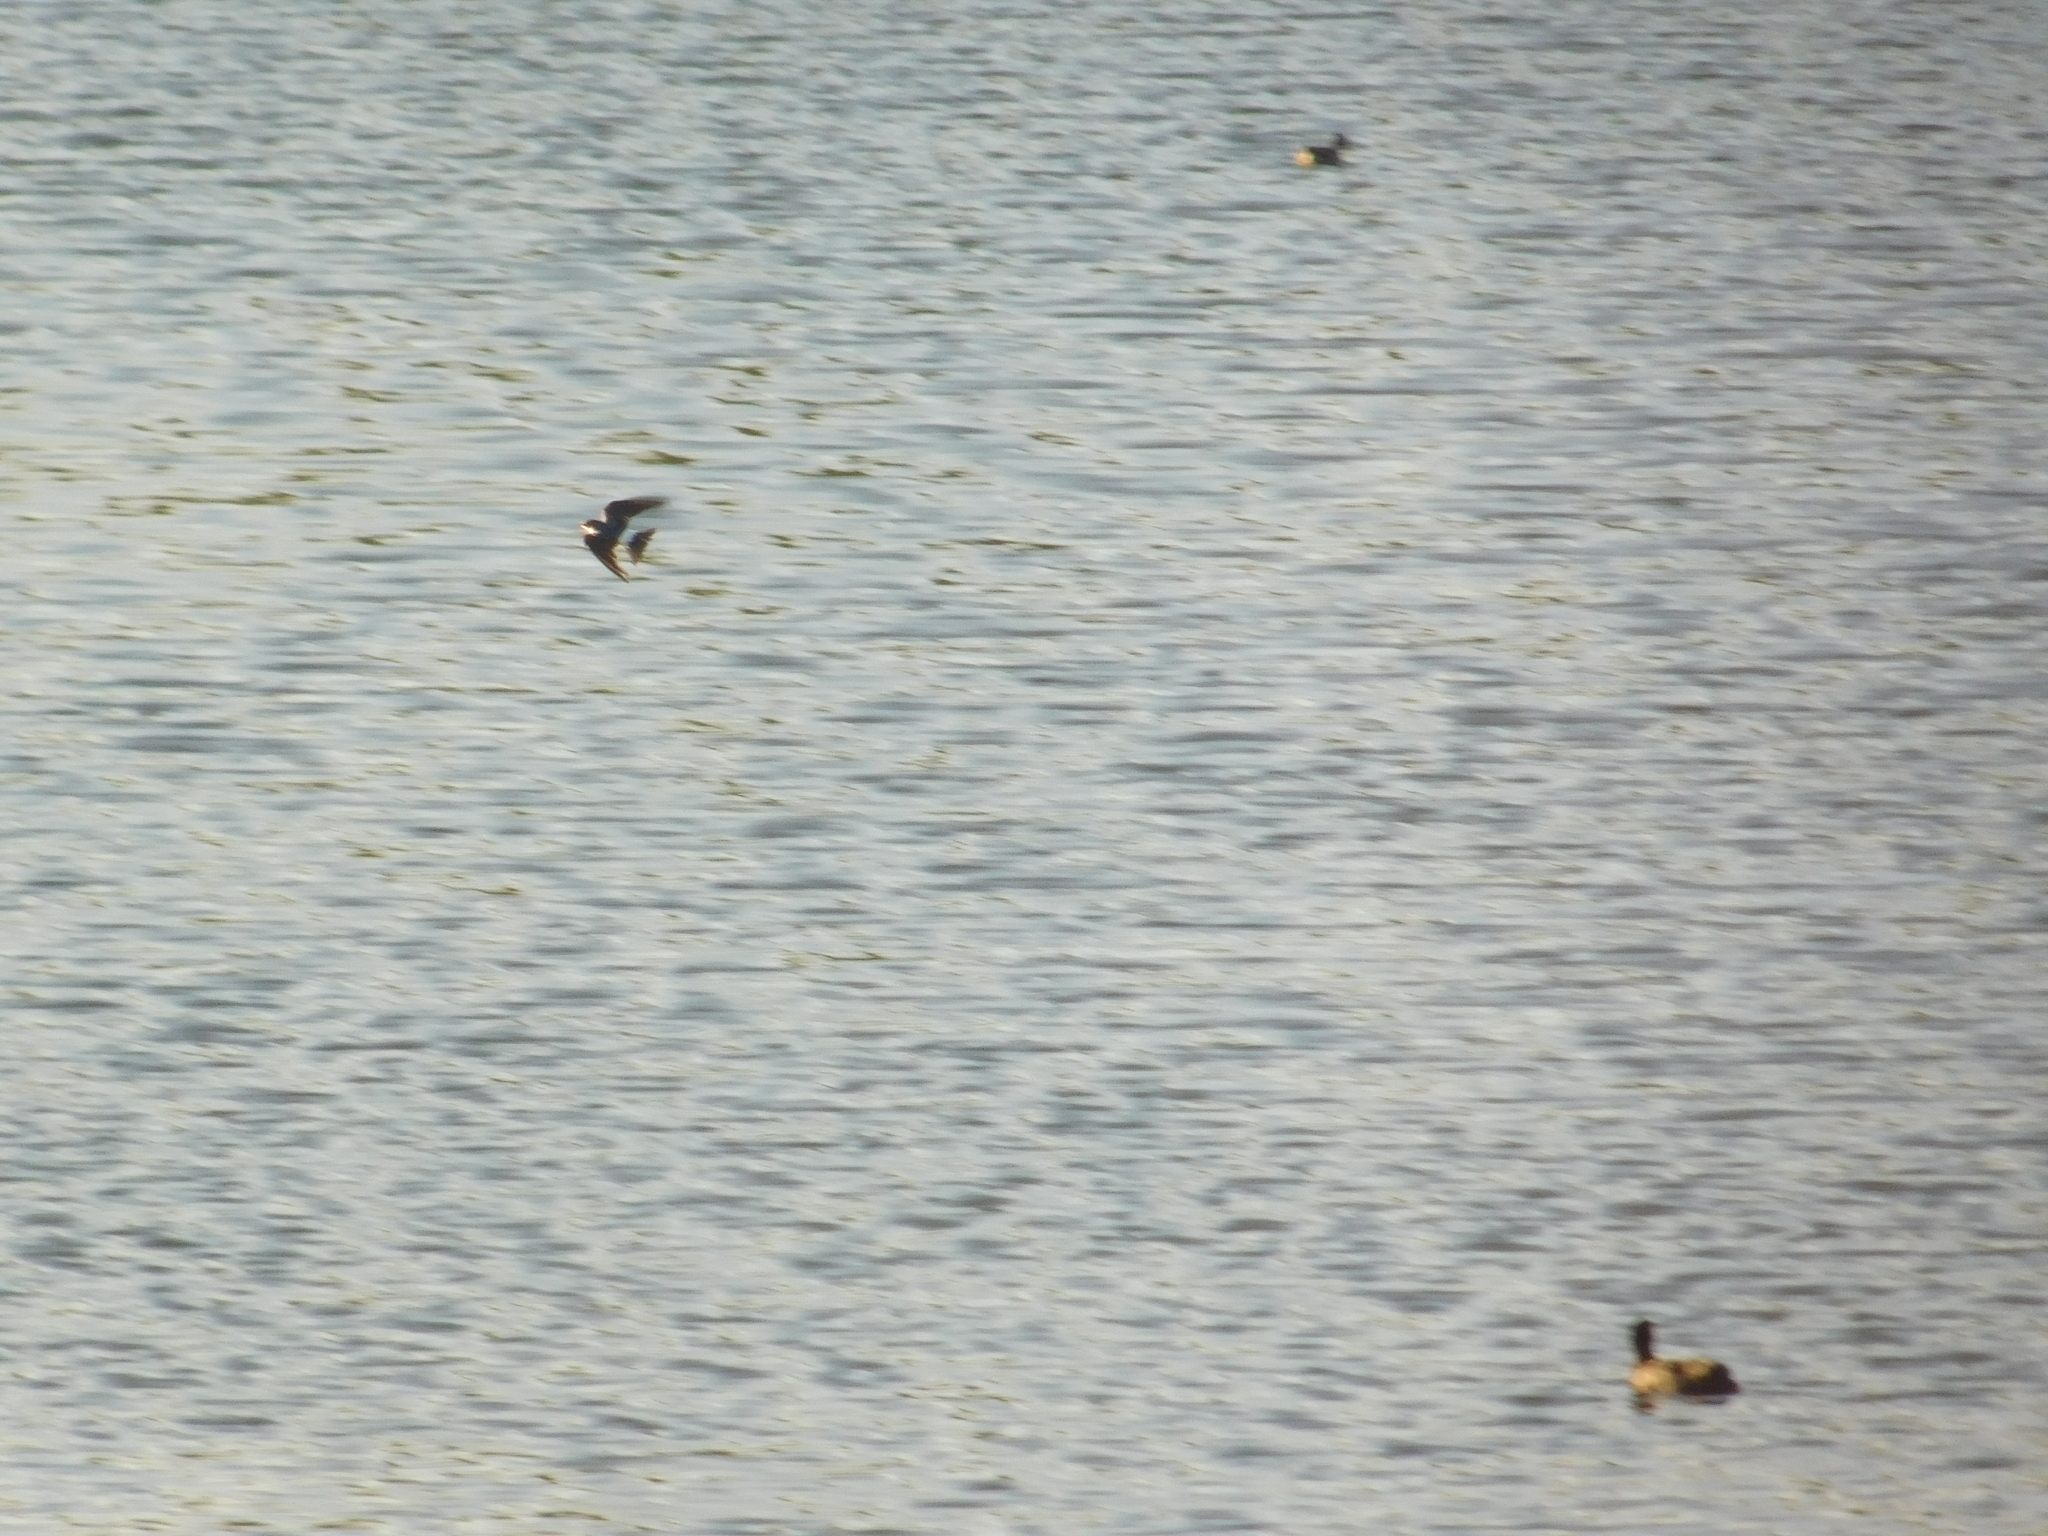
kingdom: Animalia
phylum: Chordata
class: Aves
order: Passeriformes
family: Hirundinidae
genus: Tachycineta
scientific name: Tachycineta leucorrhoa
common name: White-rumped swallow
